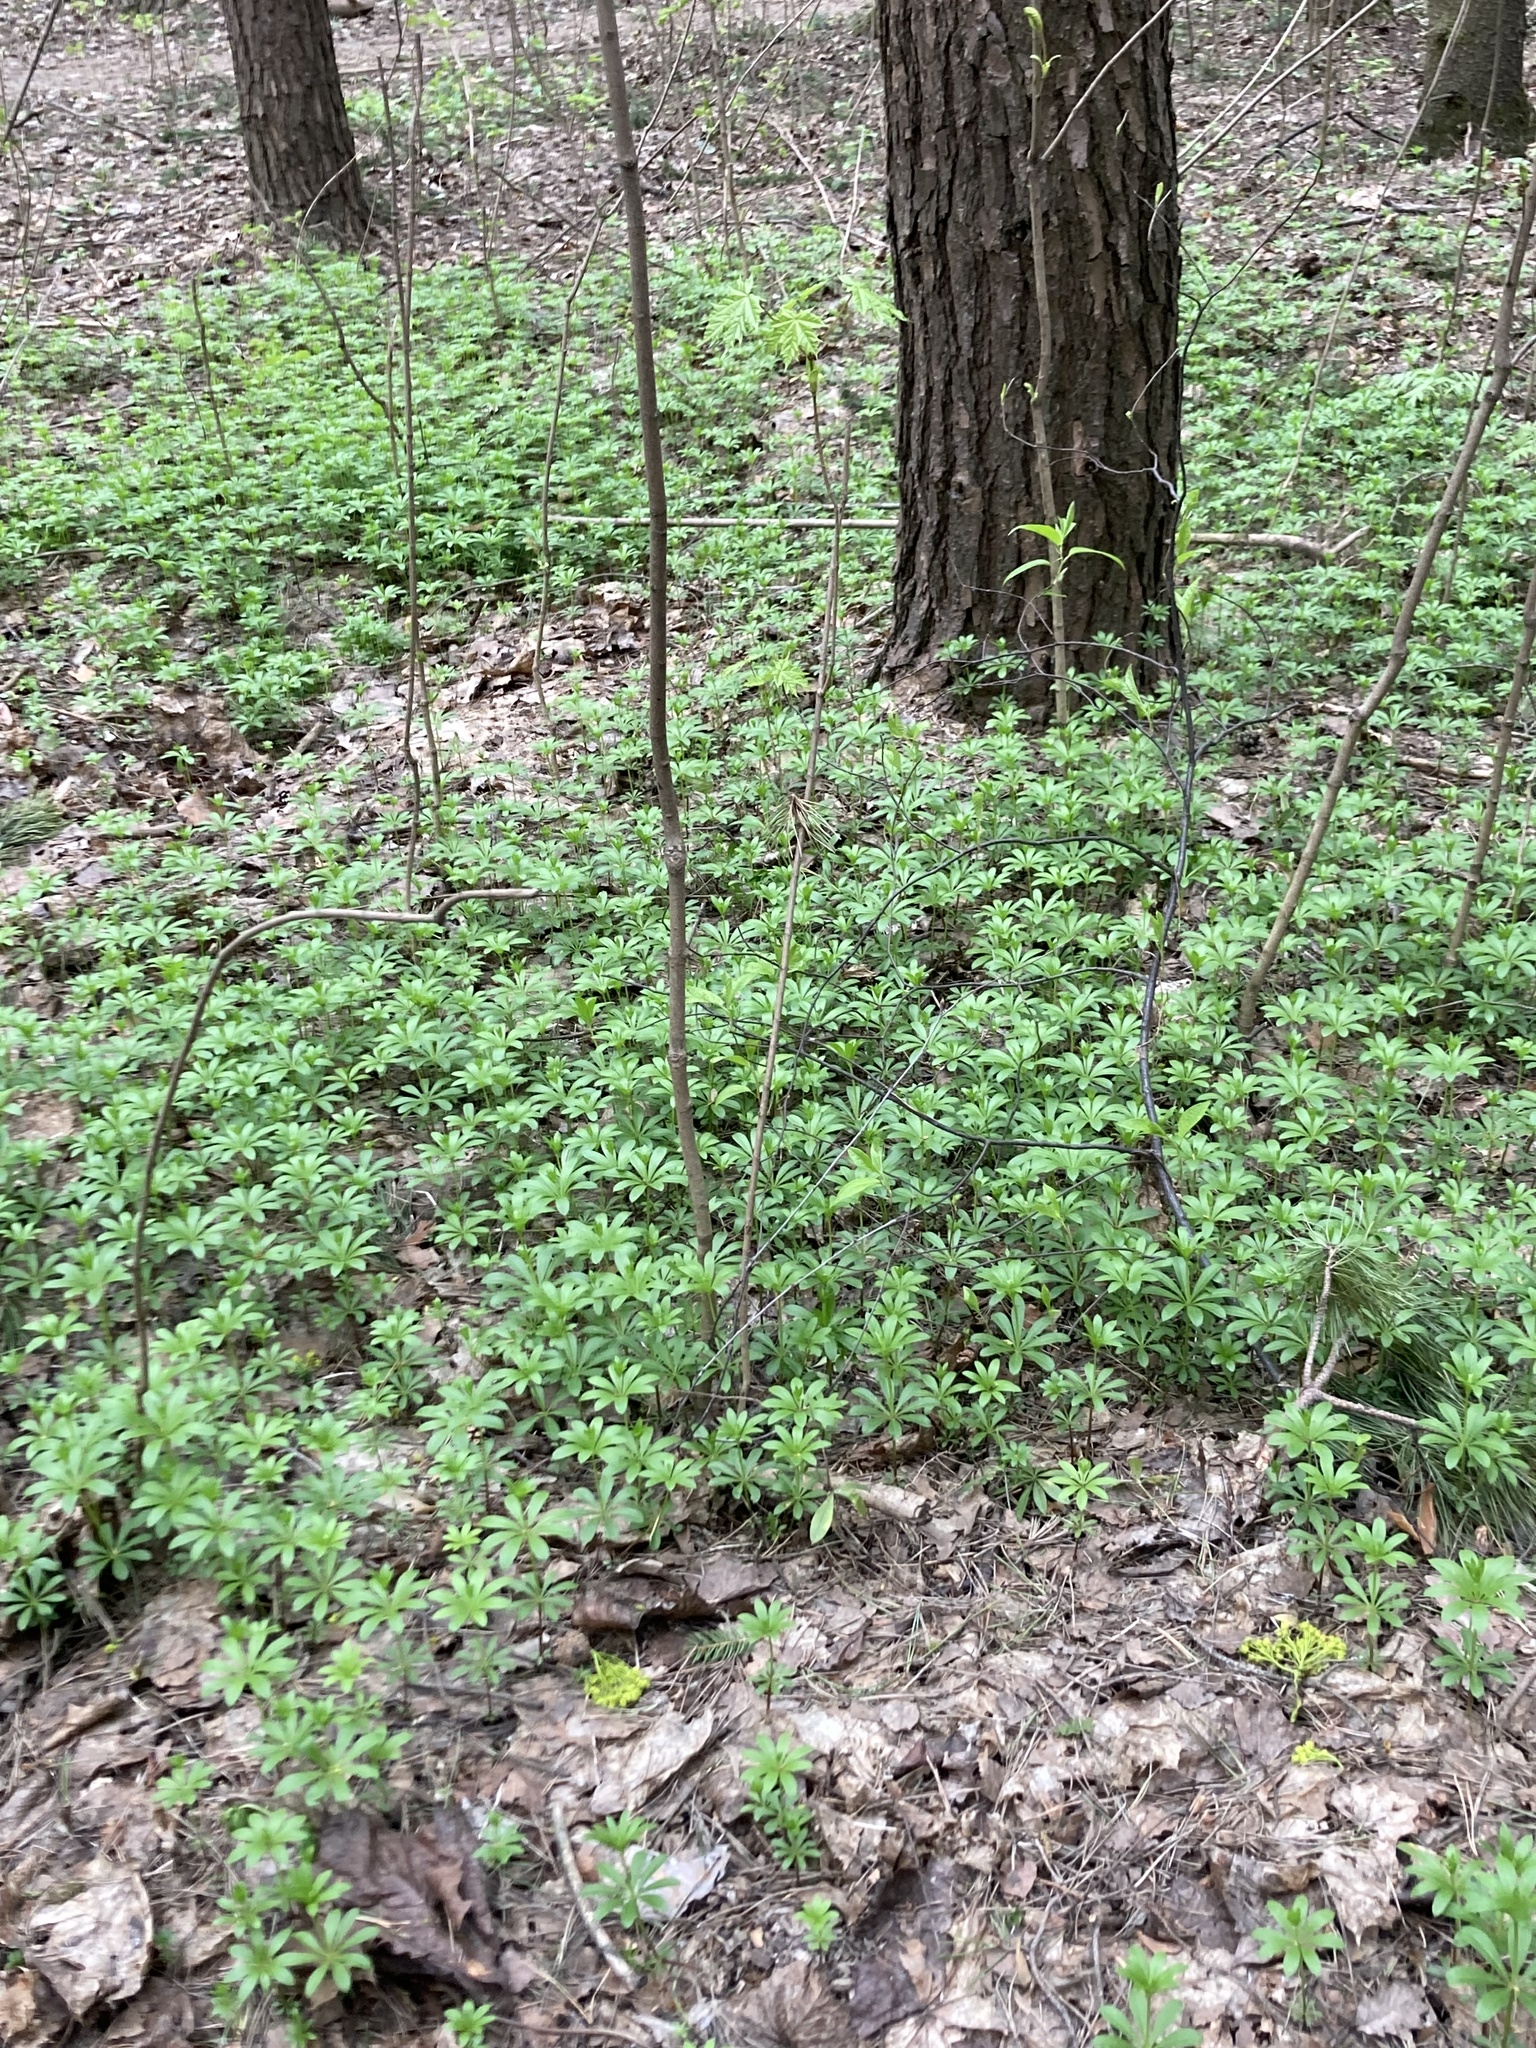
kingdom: Plantae
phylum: Tracheophyta
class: Magnoliopsida
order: Gentianales
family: Rubiaceae
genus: Galium
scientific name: Galium odoratum
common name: Sweet woodruff
